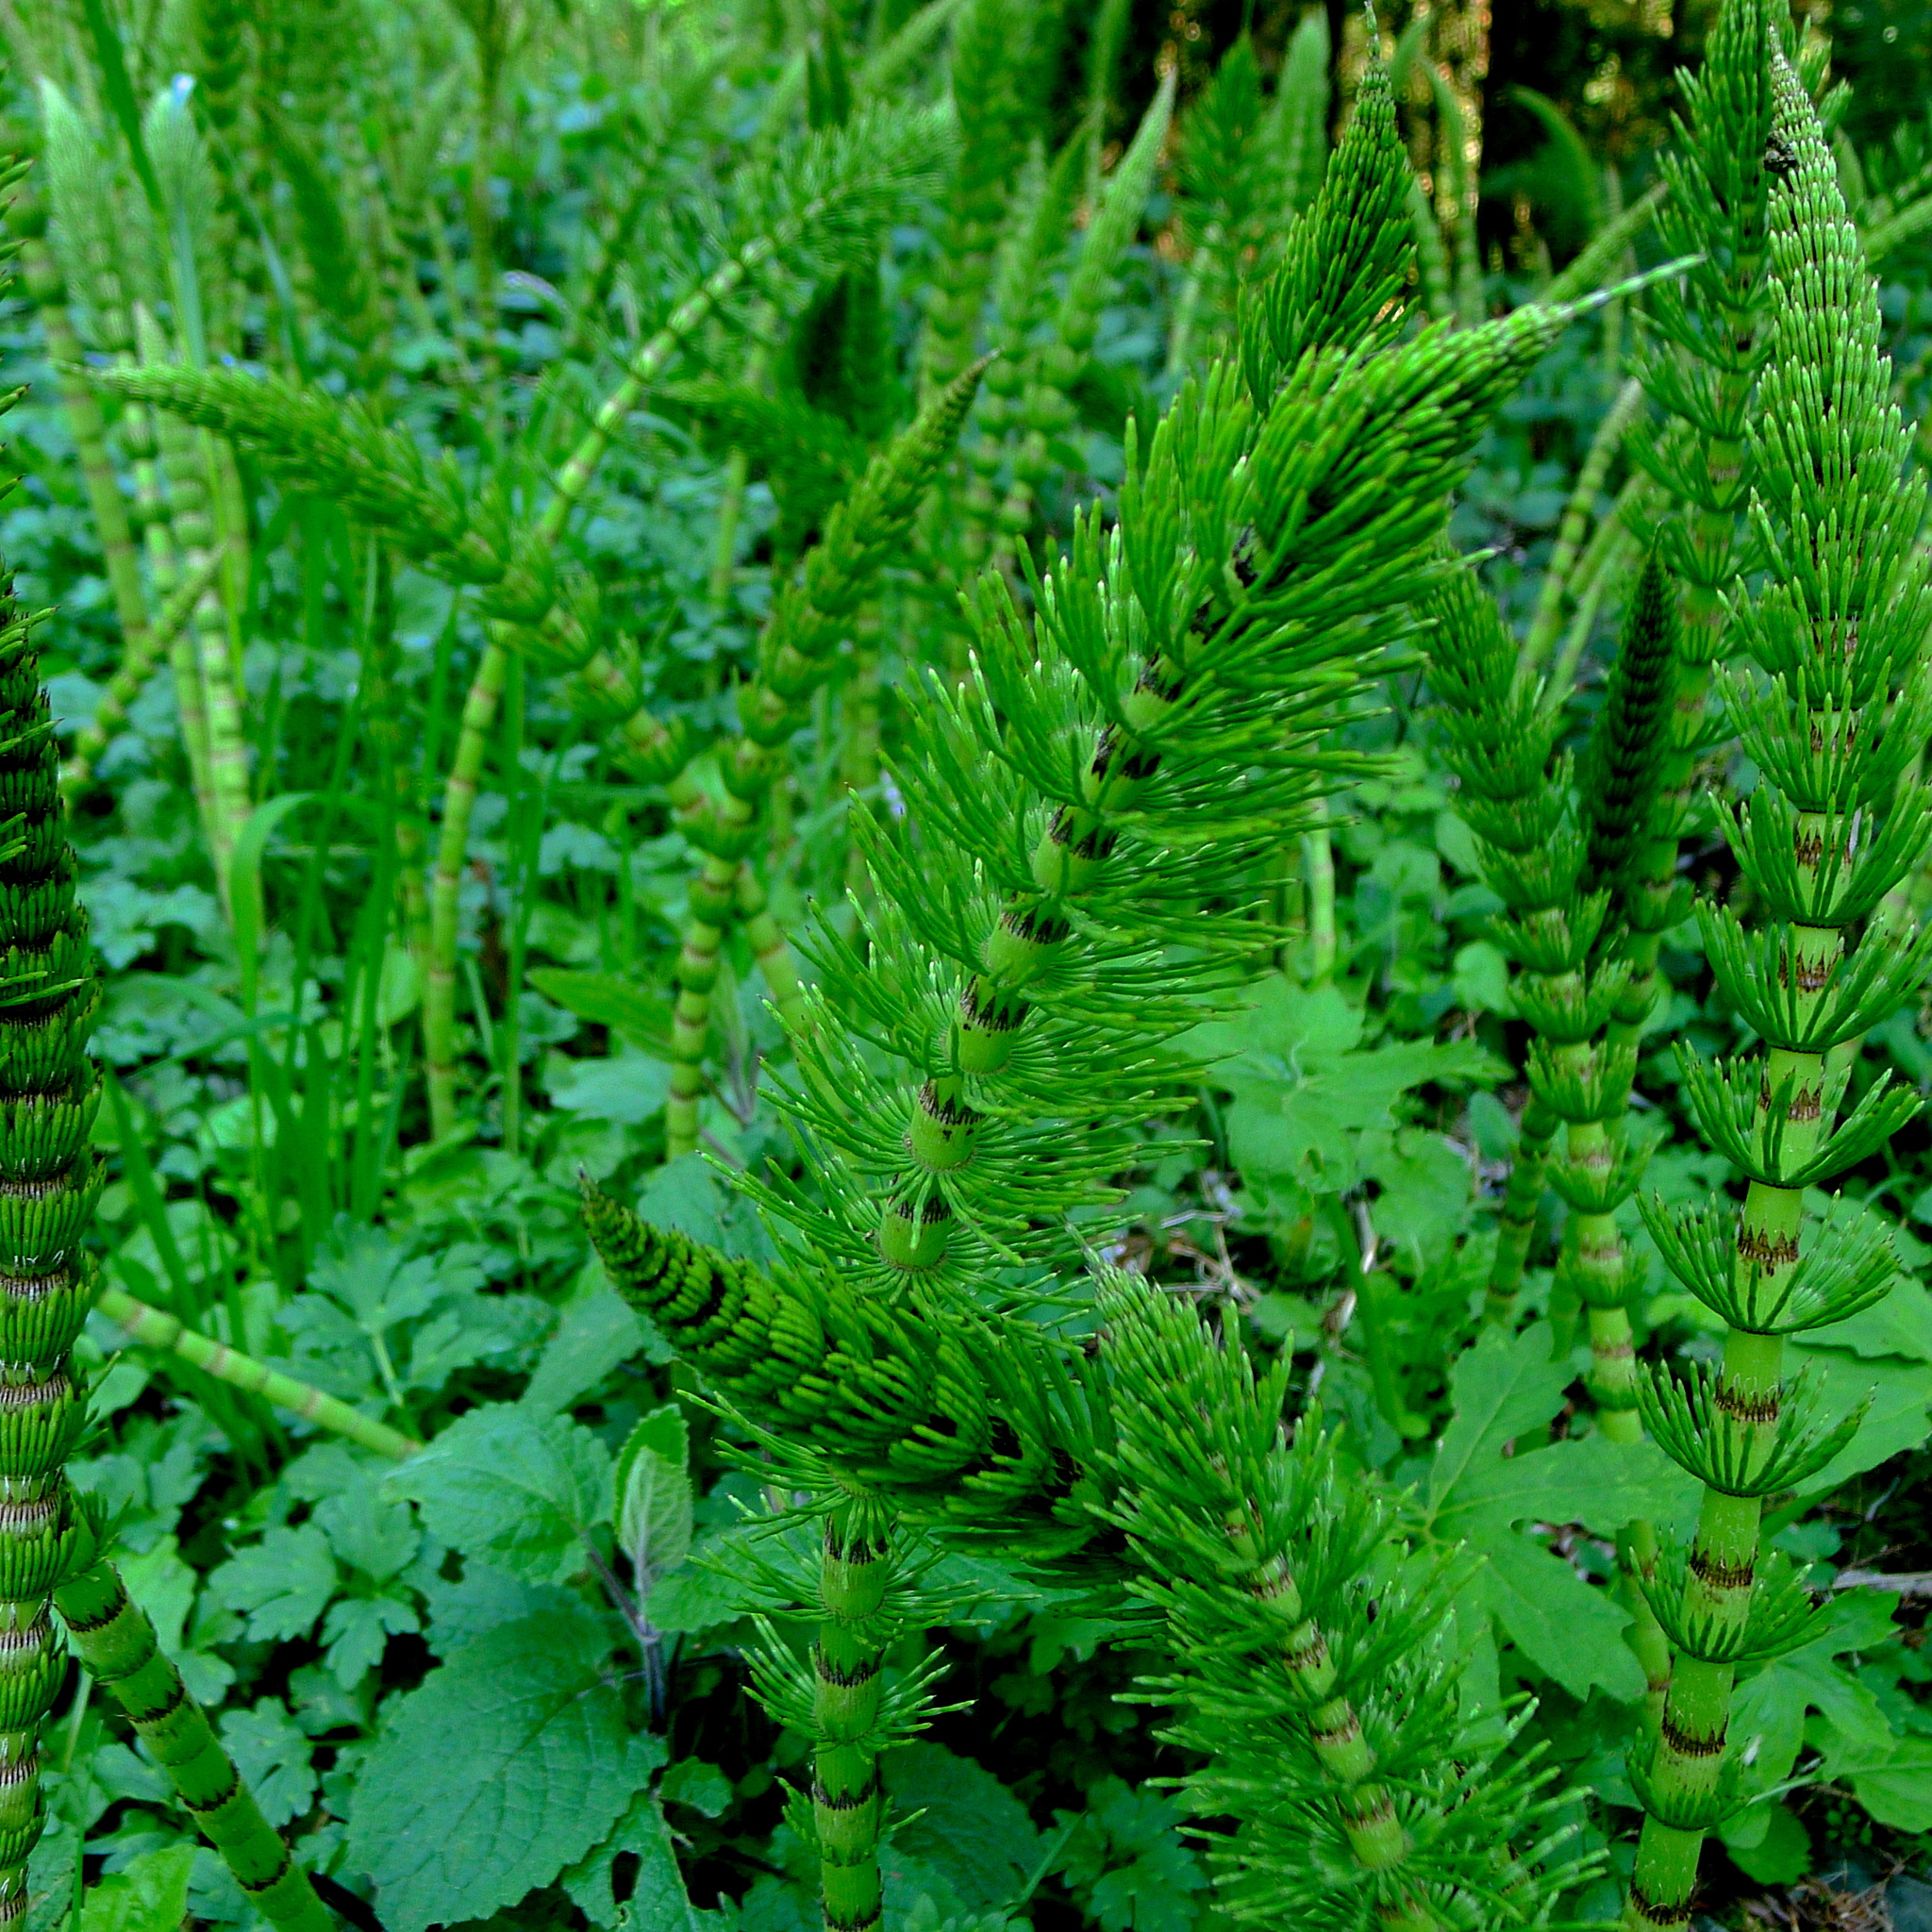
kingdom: Plantae
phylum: Tracheophyta
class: Polypodiopsida
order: Equisetales
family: Equisetaceae
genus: Equisetum
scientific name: Equisetum telmateia
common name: Great horsetail
